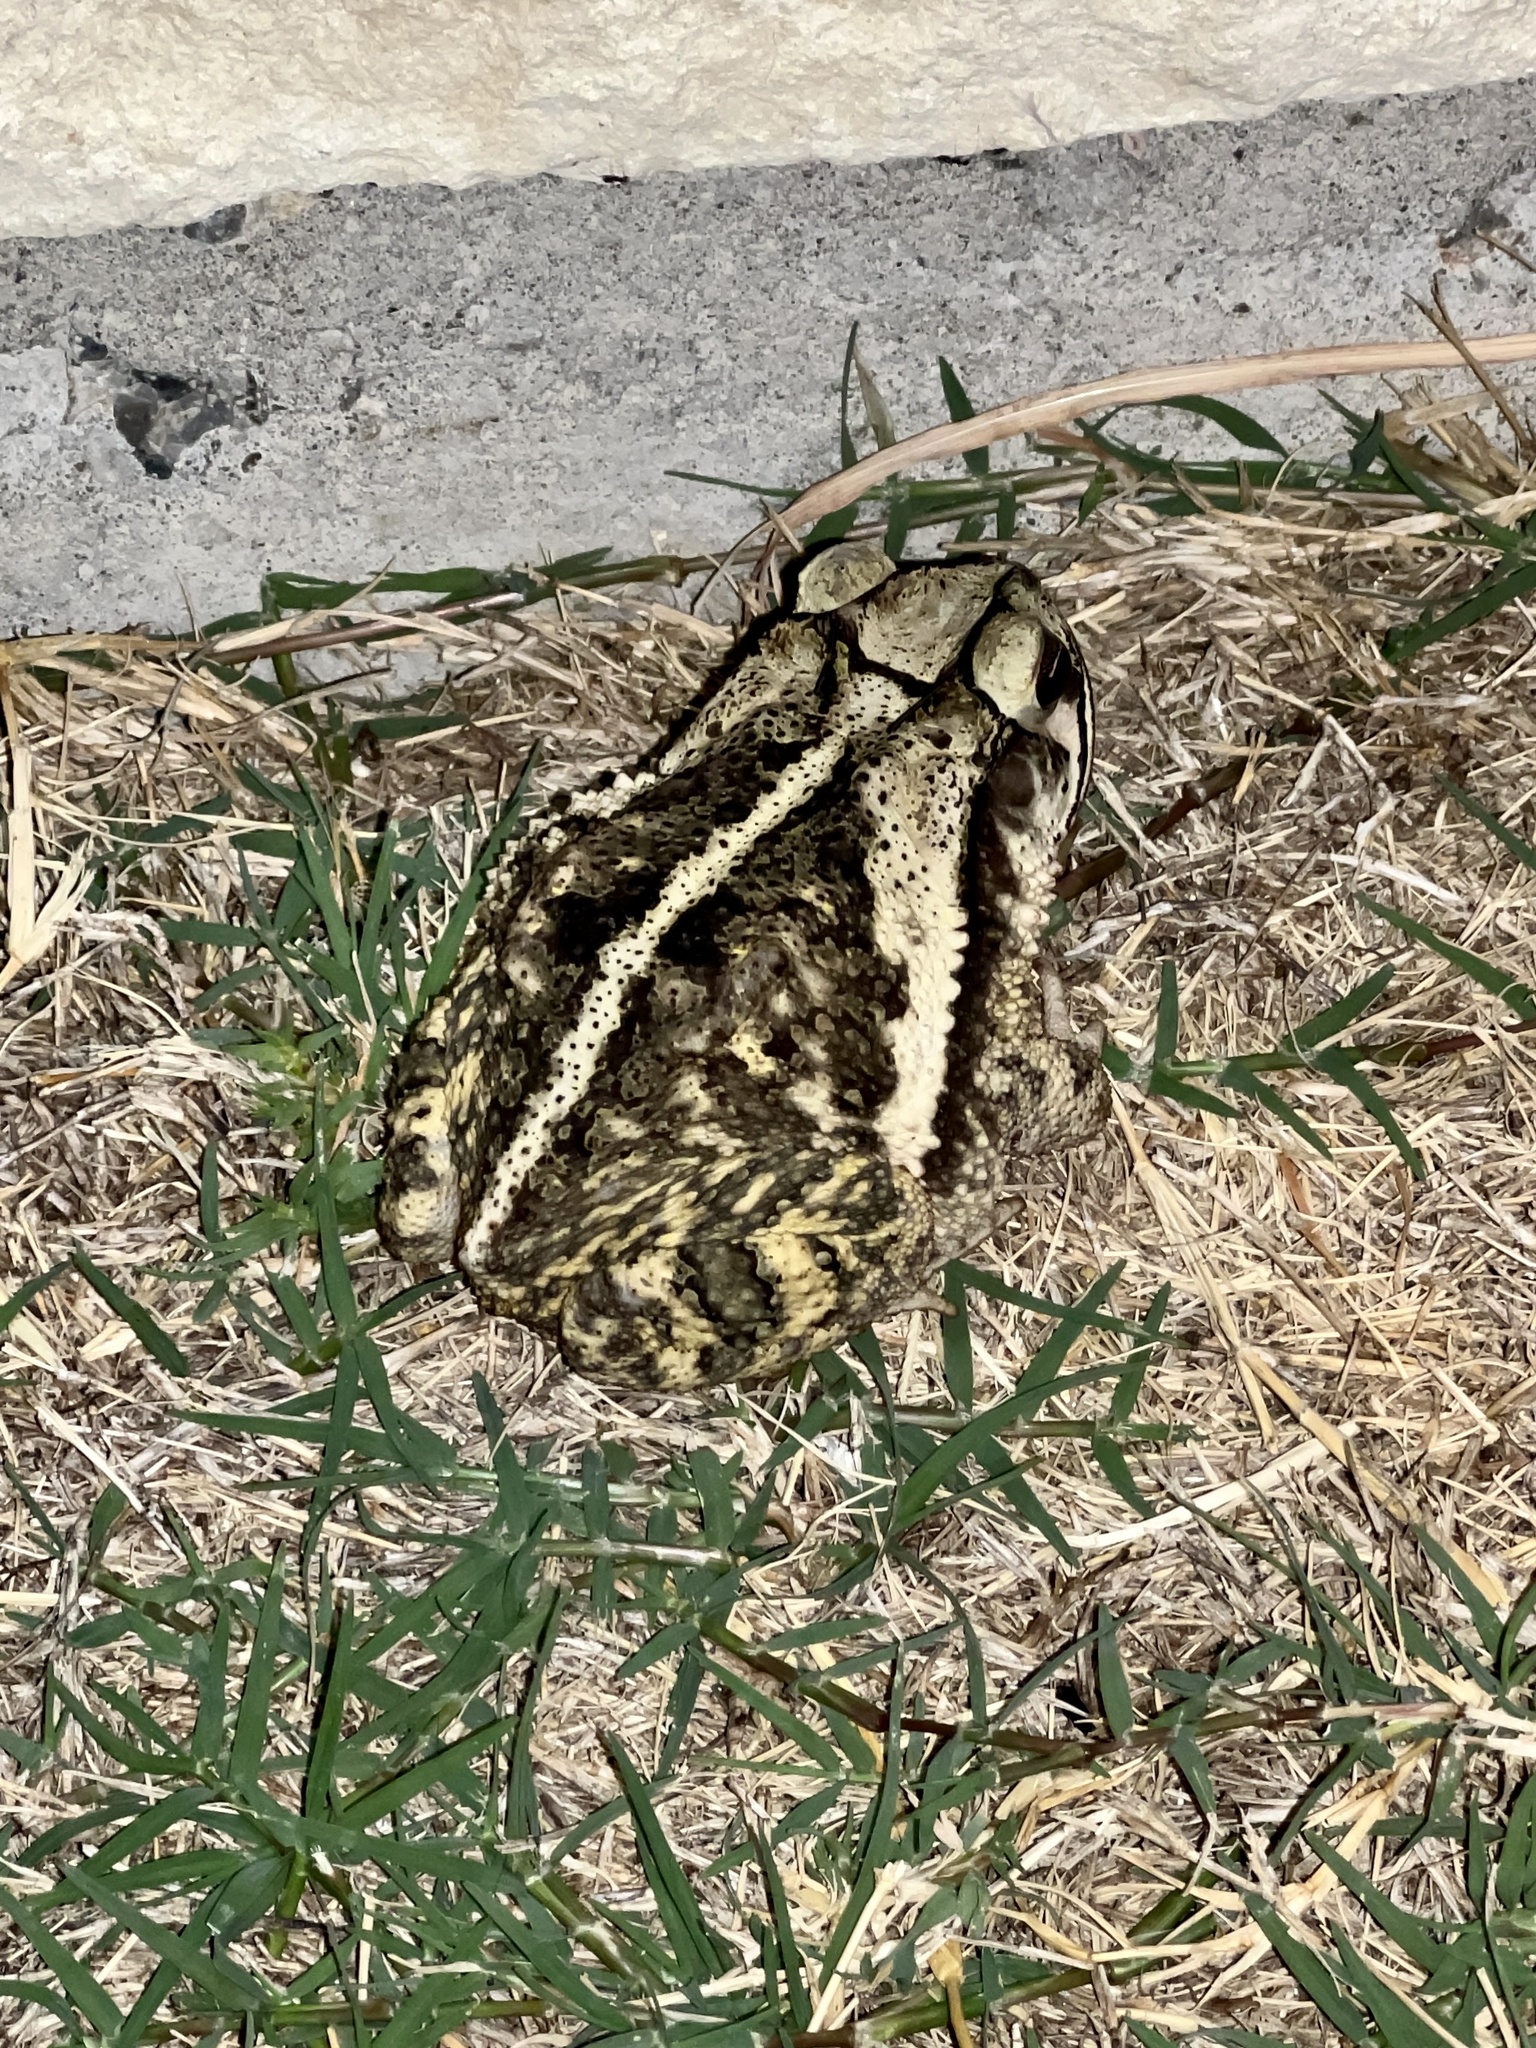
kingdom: Animalia
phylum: Chordata
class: Amphibia
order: Anura
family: Bufonidae
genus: Incilius
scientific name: Incilius nebulifer
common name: Gulf coast toad
